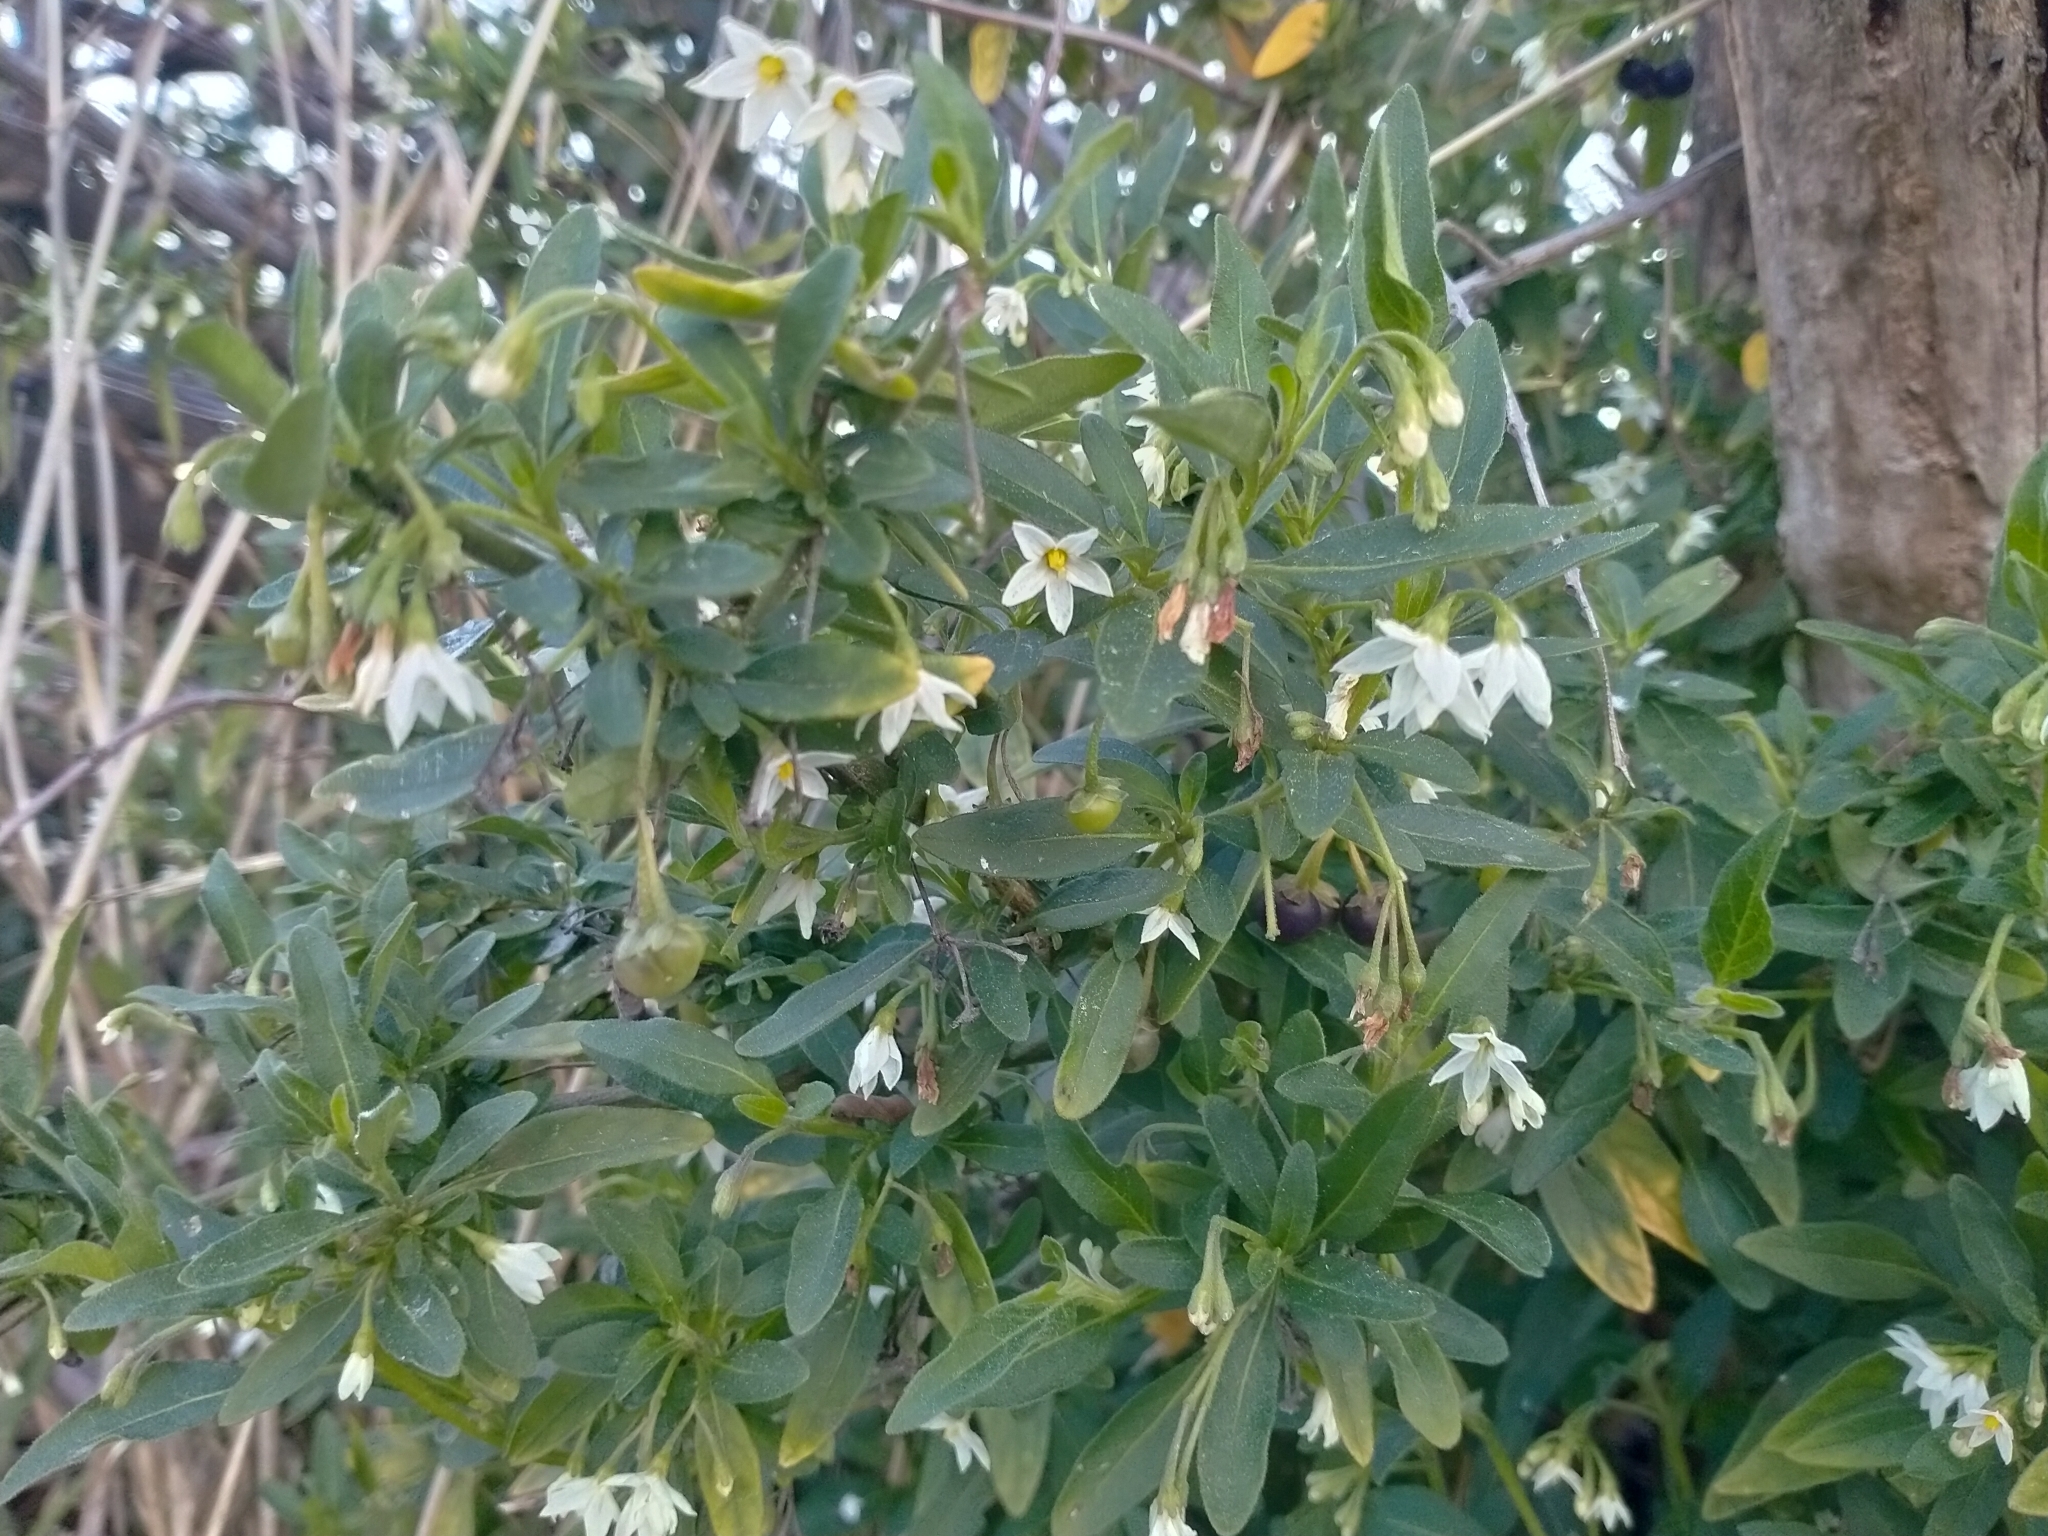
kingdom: Plantae
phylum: Tracheophyta
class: Magnoliopsida
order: Solanales
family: Solanaceae
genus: Solanum
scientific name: Solanum chenopodioides
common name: Tall nightshade
